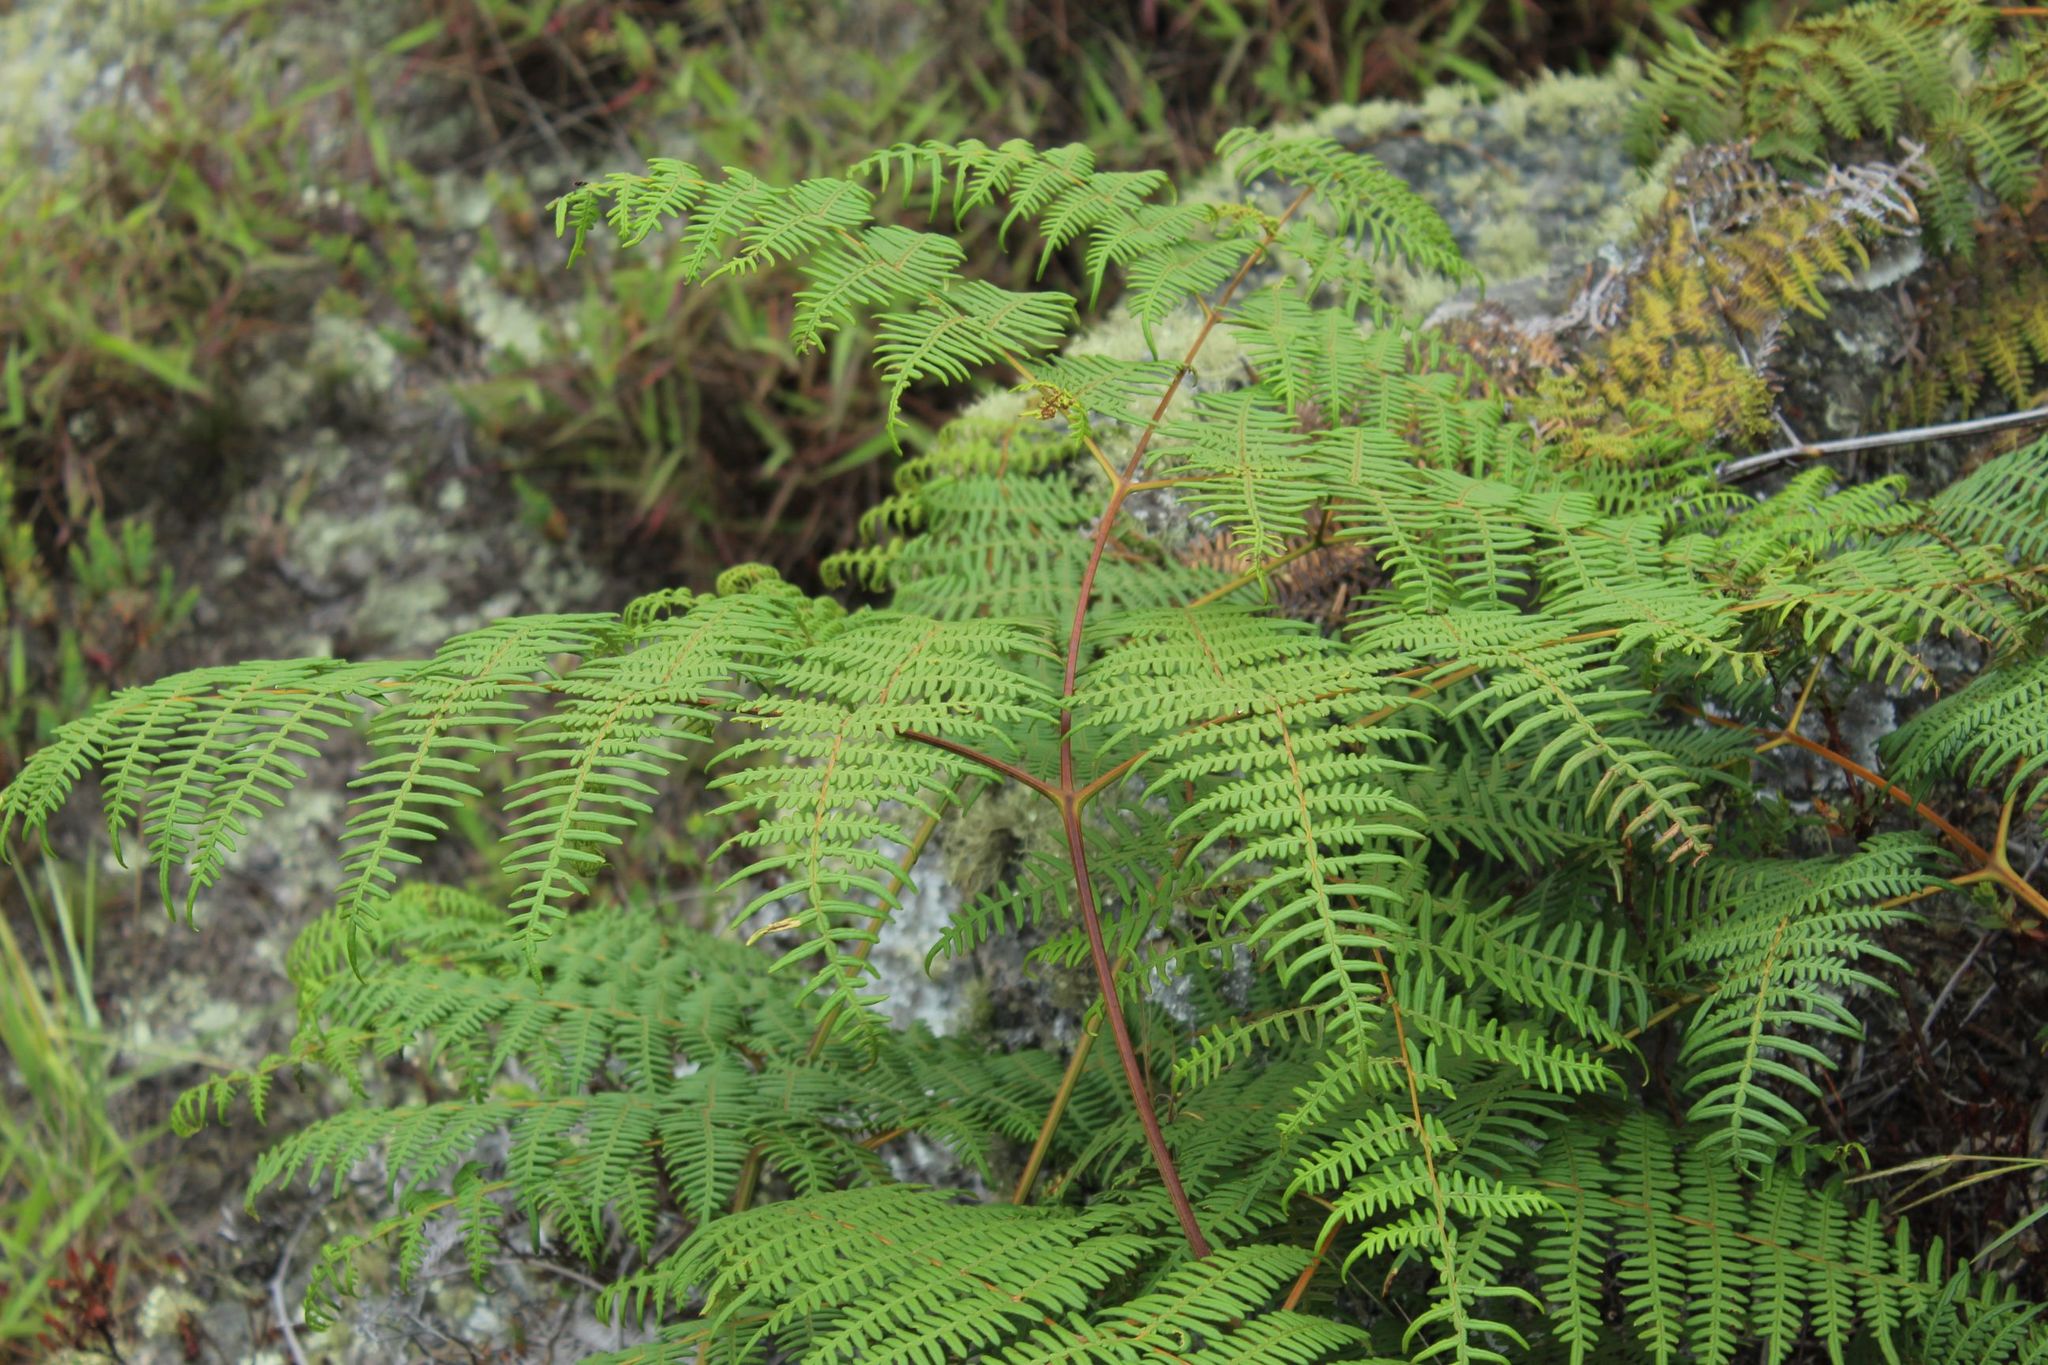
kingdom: Plantae
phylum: Tracheophyta
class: Polypodiopsida
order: Polypodiales
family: Dennstaedtiaceae
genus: Pteridium
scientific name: Pteridium esculentum
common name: Bracken fern
